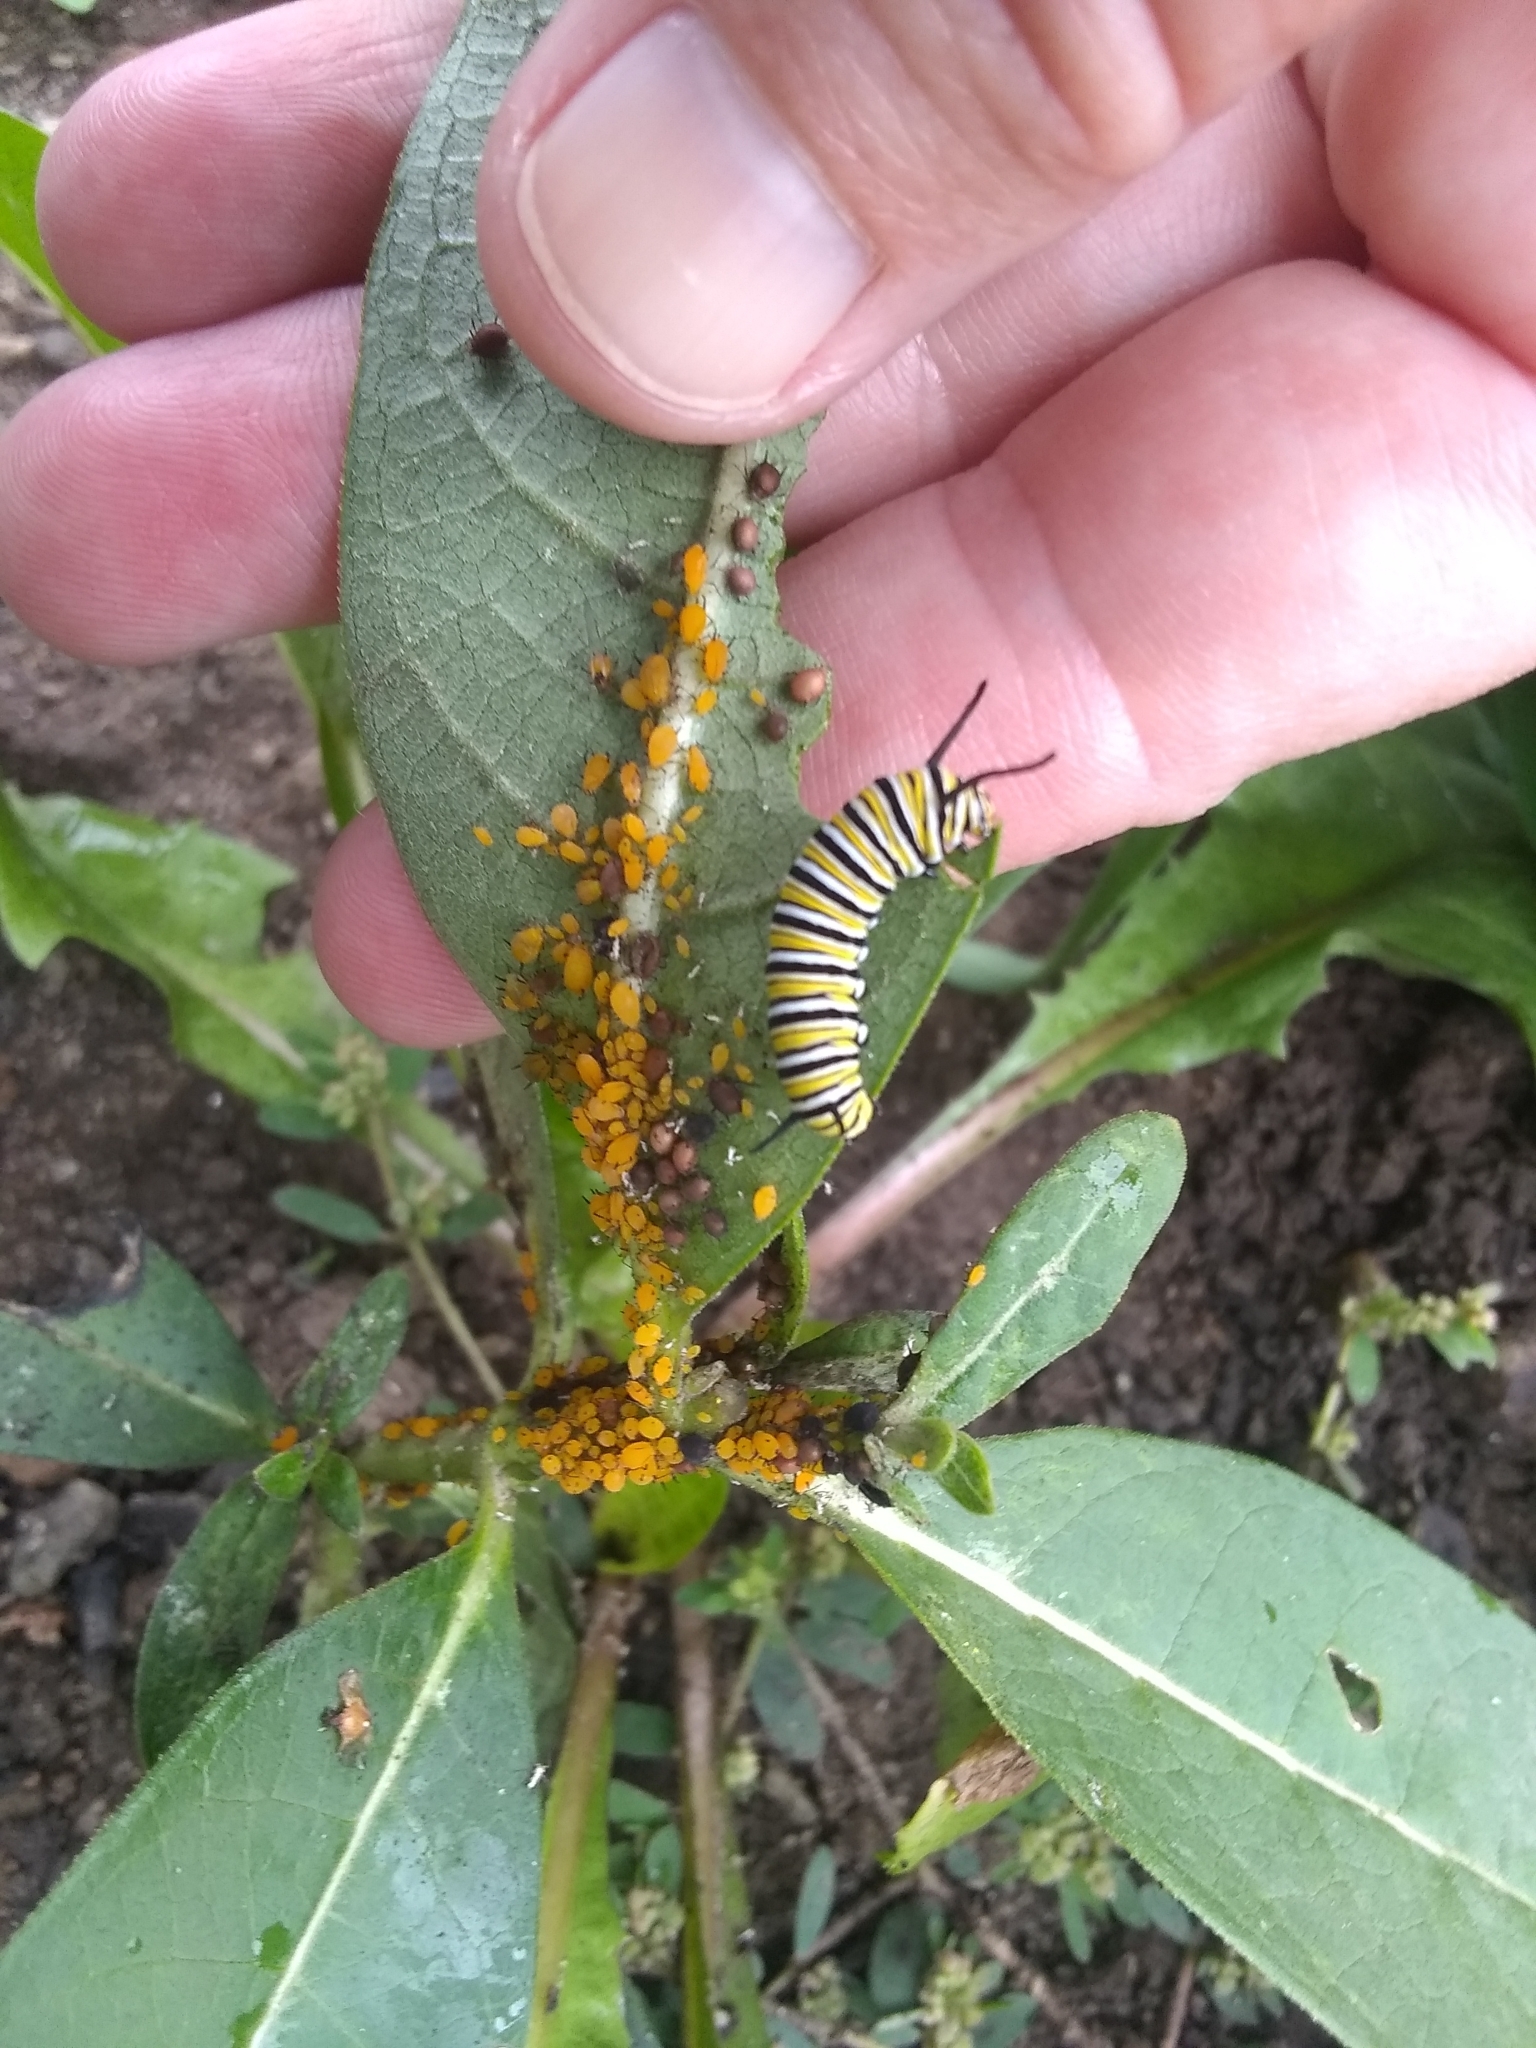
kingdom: Animalia
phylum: Arthropoda
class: Insecta
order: Hemiptera
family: Aphididae
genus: Aphis
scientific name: Aphis nerii
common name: Oleander aphid
